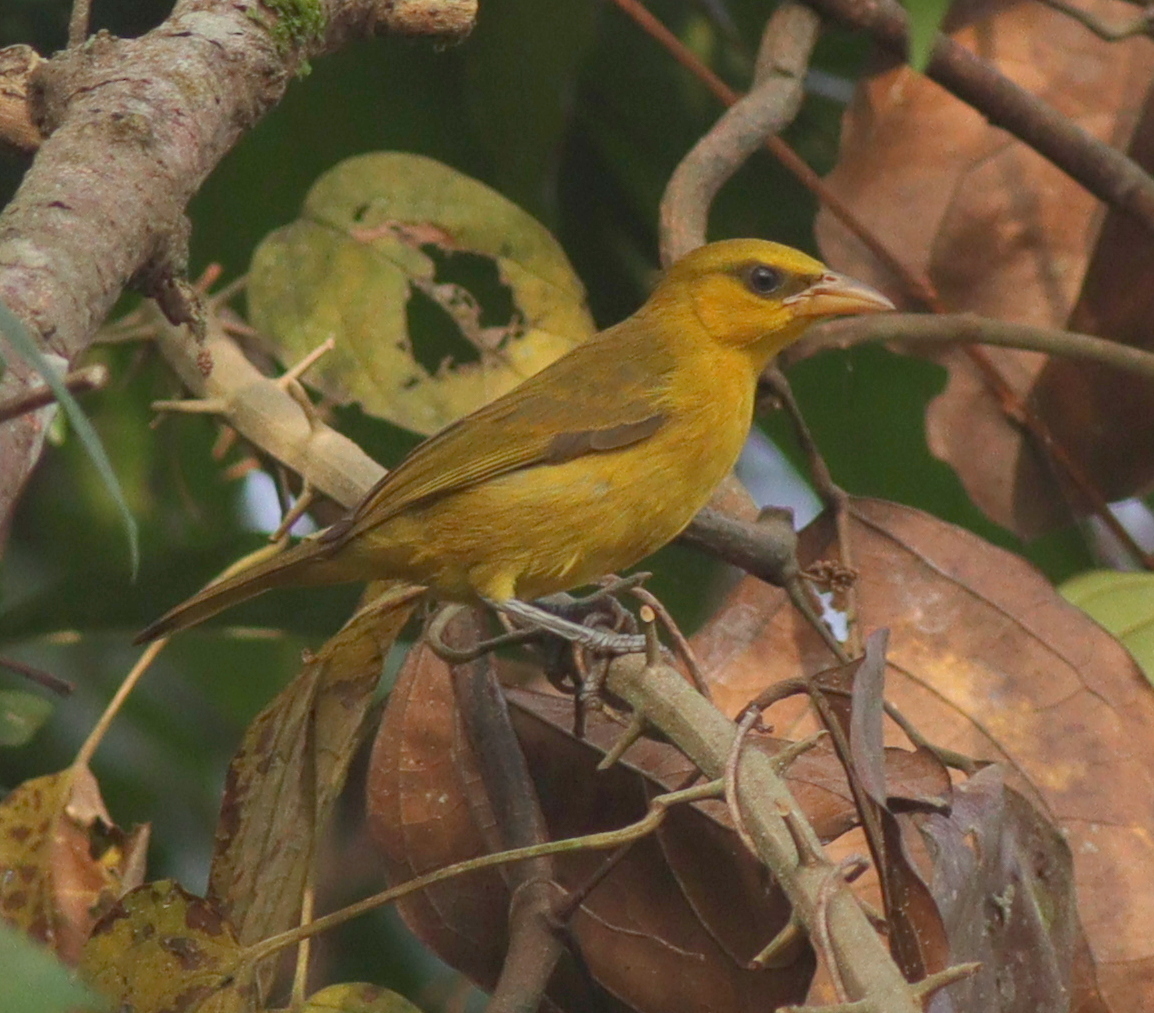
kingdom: Animalia
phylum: Chordata
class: Aves
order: Passeriformes
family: Ploceidae
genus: Ploceus
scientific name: Ploceus brachypterus
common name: Olive-naped weaver
